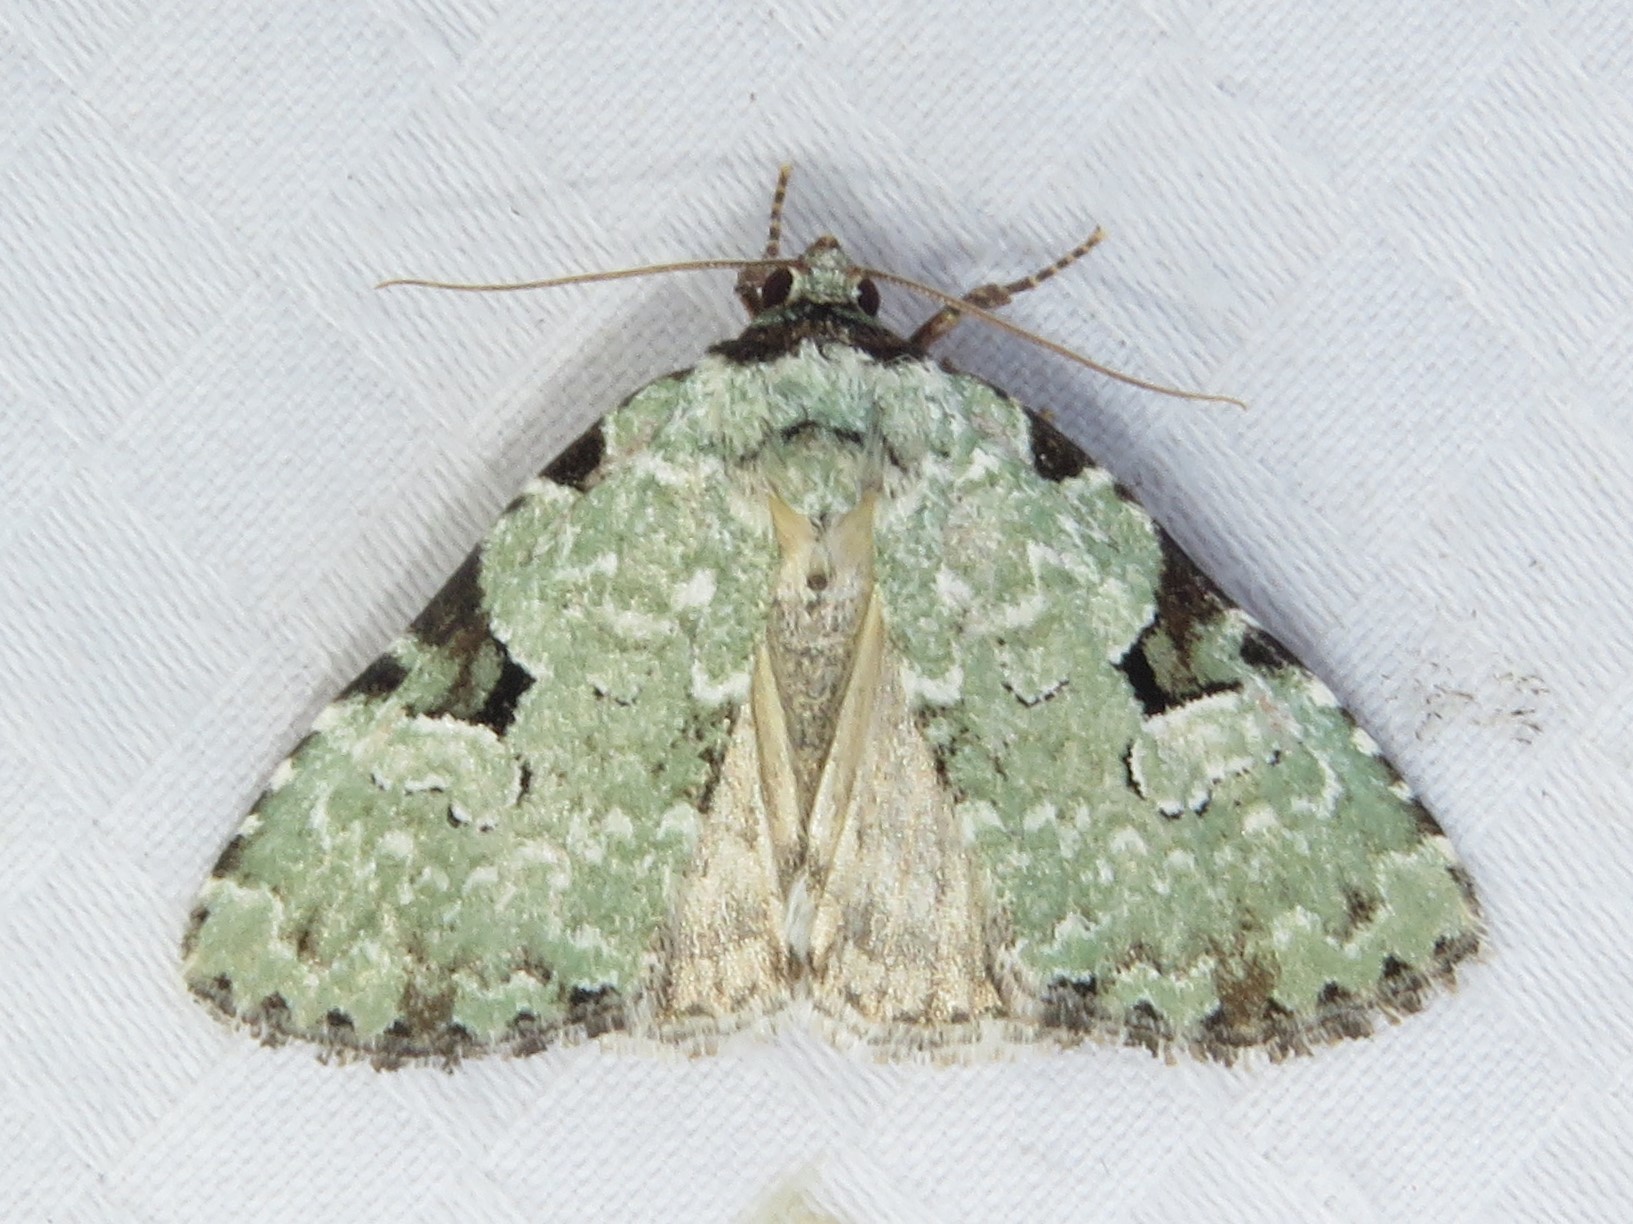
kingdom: Animalia
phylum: Arthropoda
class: Insecta
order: Lepidoptera
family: Noctuidae
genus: Leuconycta
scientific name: Leuconycta diphteroides
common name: Green leuconycta moth
